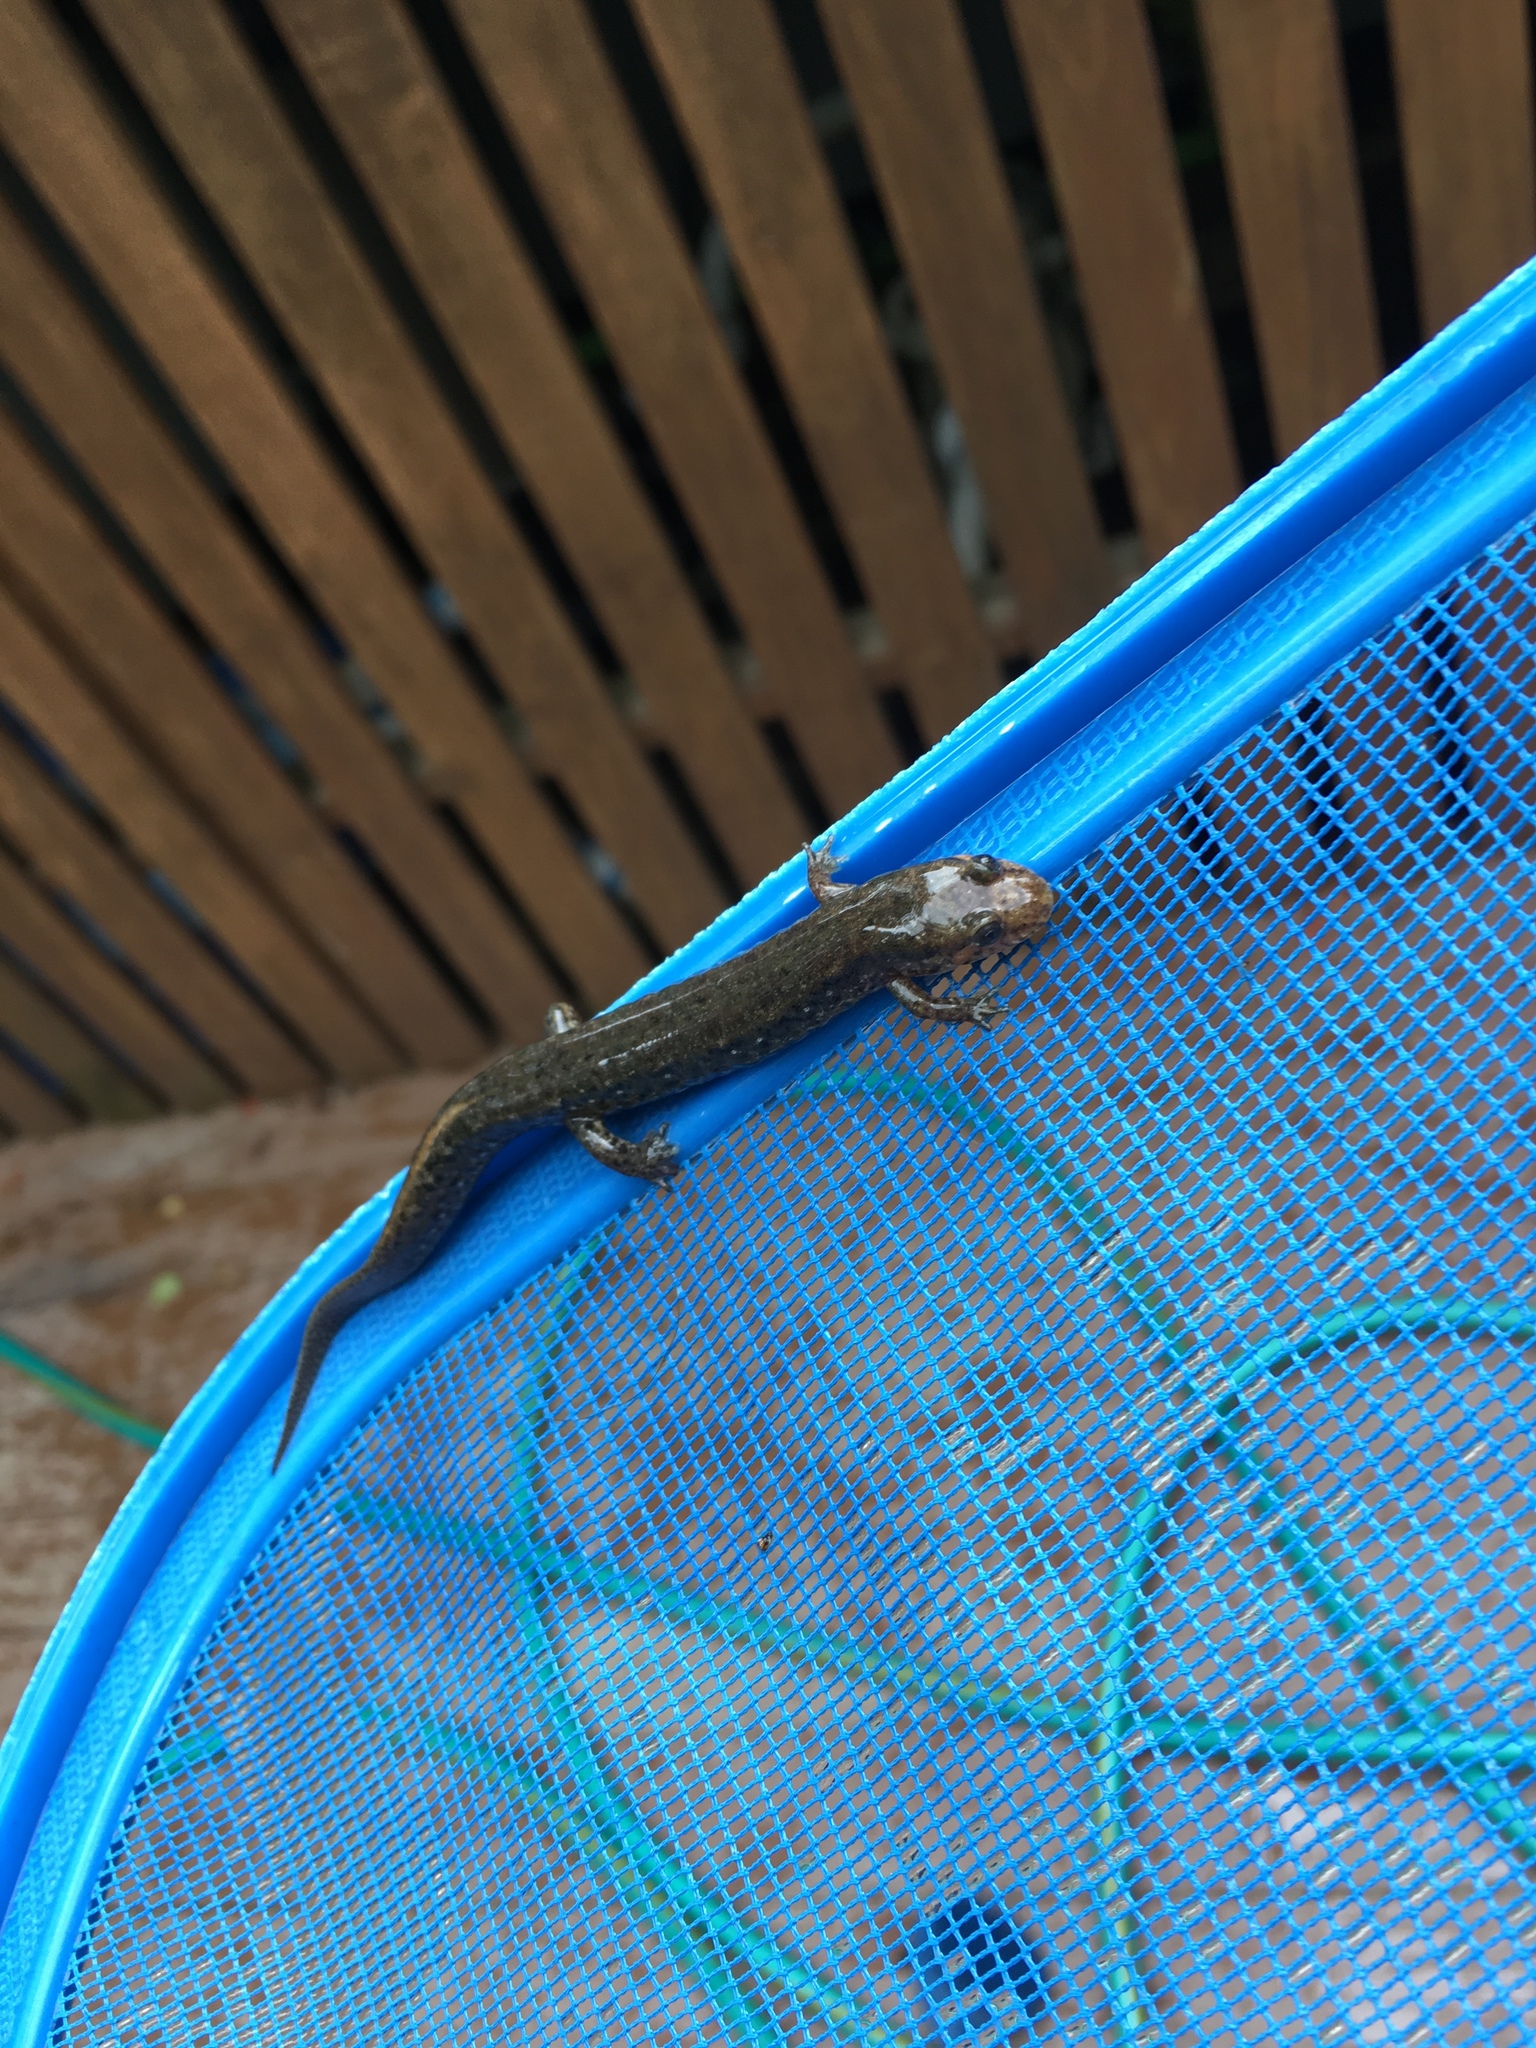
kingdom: Animalia
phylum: Chordata
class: Amphibia
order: Caudata
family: Plethodontidae
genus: Desmognathus
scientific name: Desmognathus
